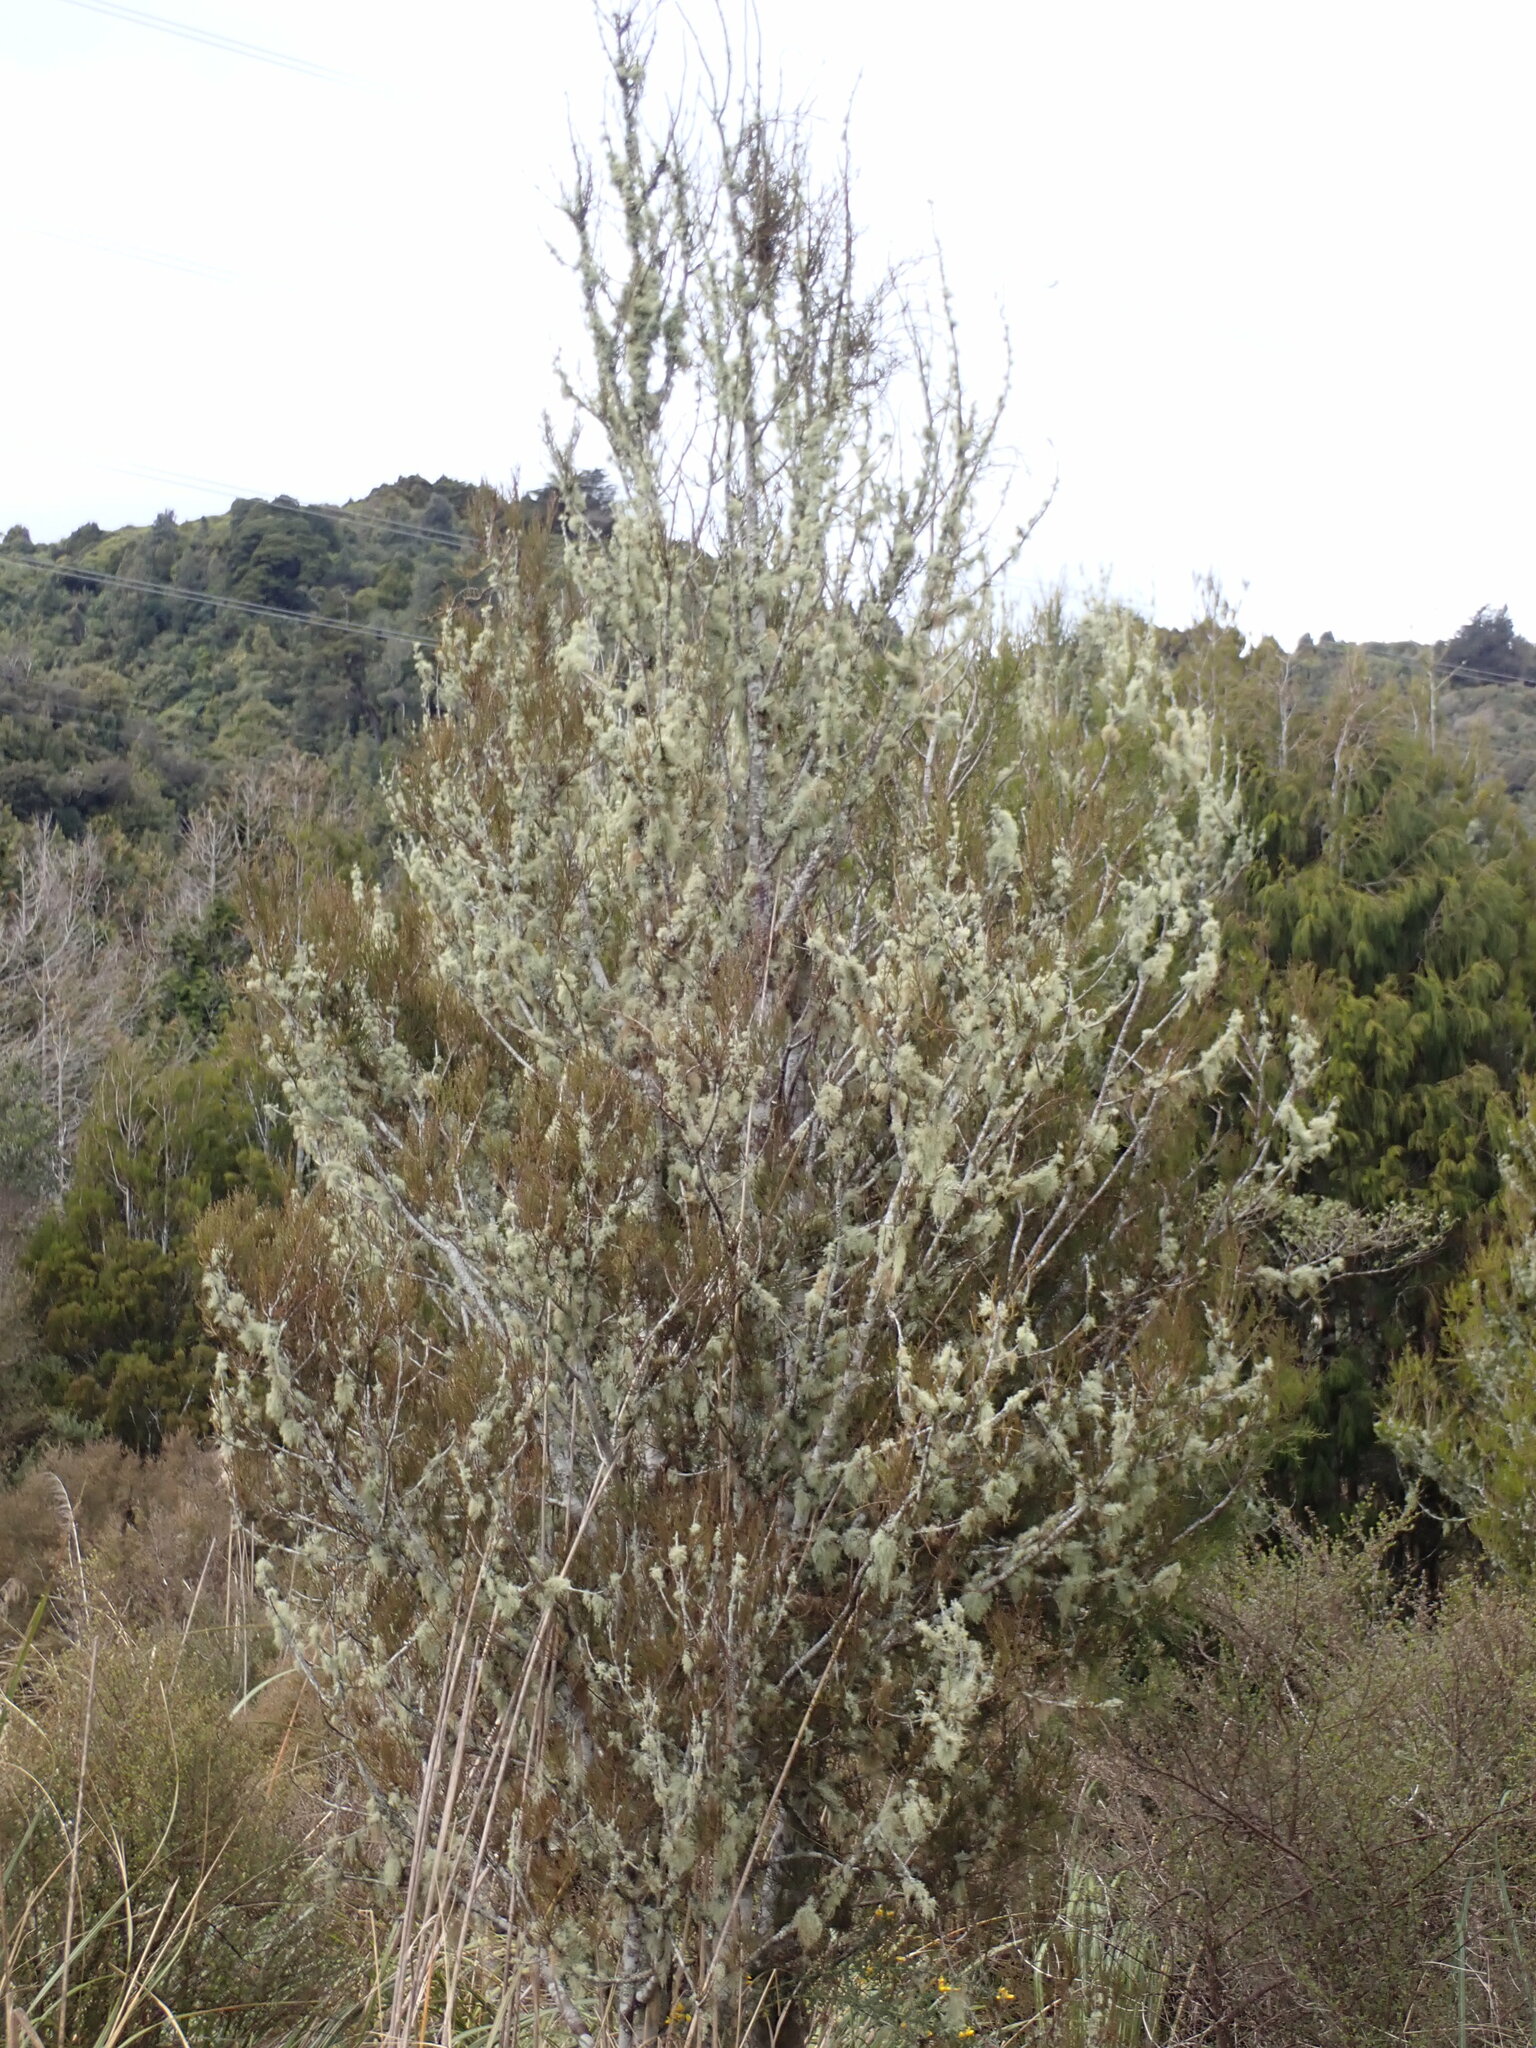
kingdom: Plantae
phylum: Tracheophyta
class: Pinopsida
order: Pinales
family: Podocarpaceae
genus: Dacrycarpus
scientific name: Dacrycarpus dacrydioides
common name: White pine
